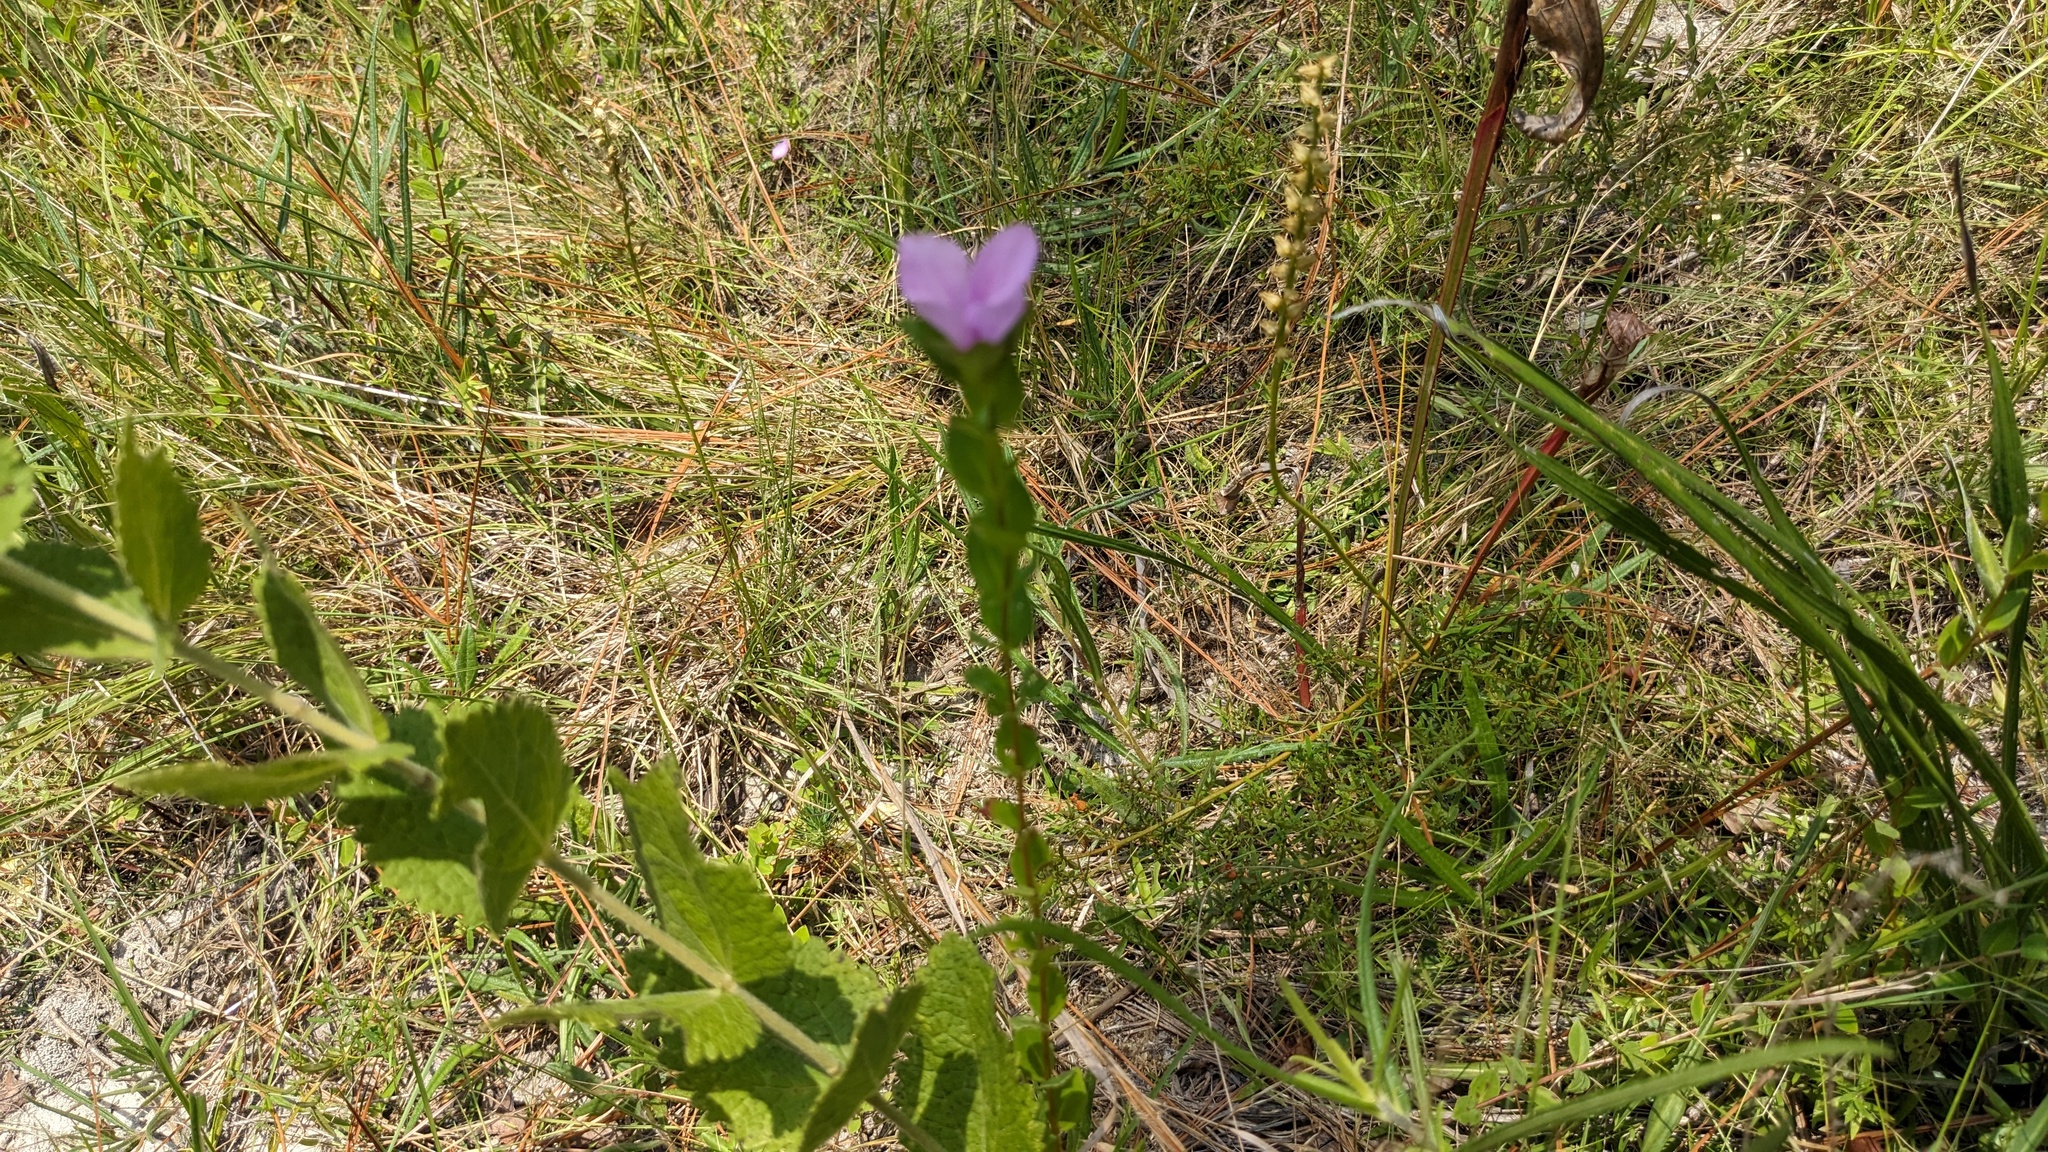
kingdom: Plantae
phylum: Tracheophyta
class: Magnoliopsida
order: Myrtales
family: Melastomataceae
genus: Rhexia
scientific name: Rhexia petiolata
